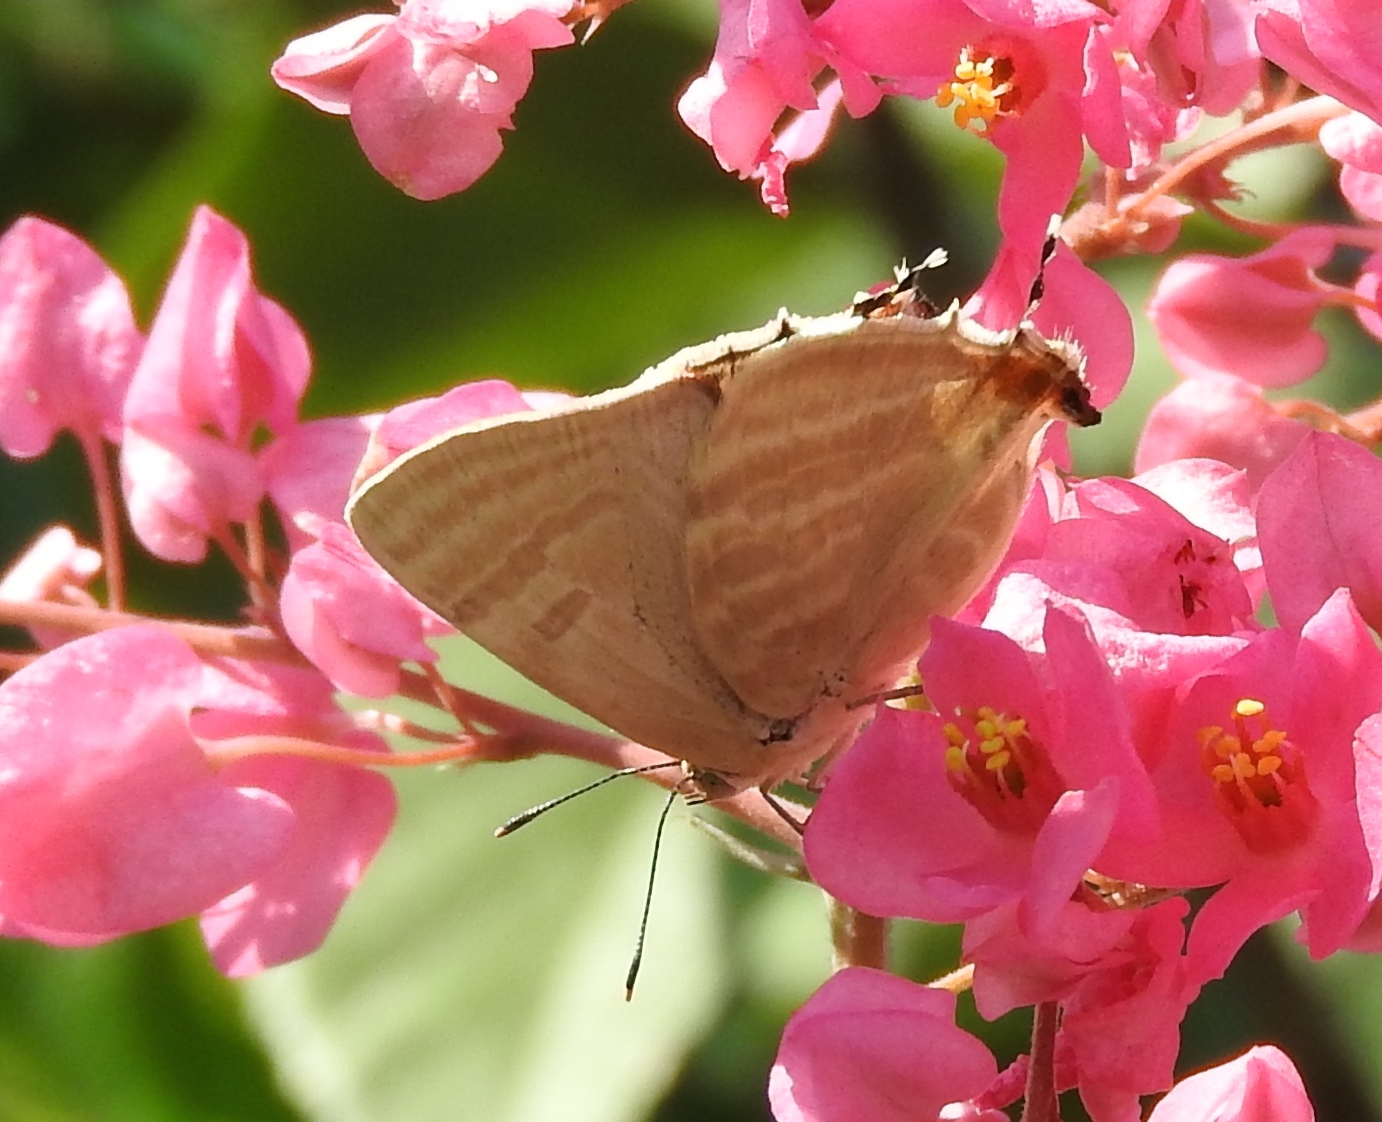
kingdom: Animalia
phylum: Arthropoda
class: Insecta
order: Lepidoptera
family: Lycaenidae
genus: Dolymorpha
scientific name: Dolymorpha jada
